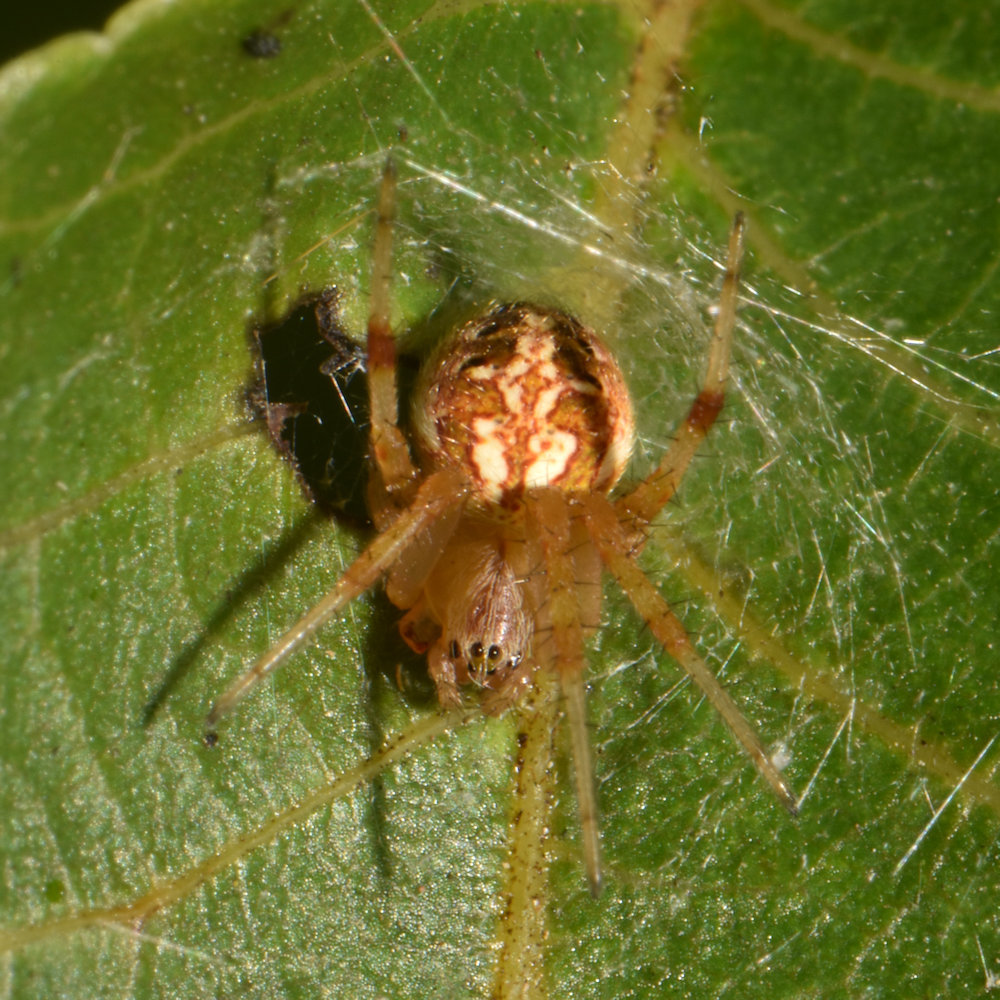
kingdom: Animalia
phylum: Arthropoda
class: Arachnida
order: Araneae
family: Araneidae
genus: Neoscona
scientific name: Neoscona arabesca
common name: Orb weavers
